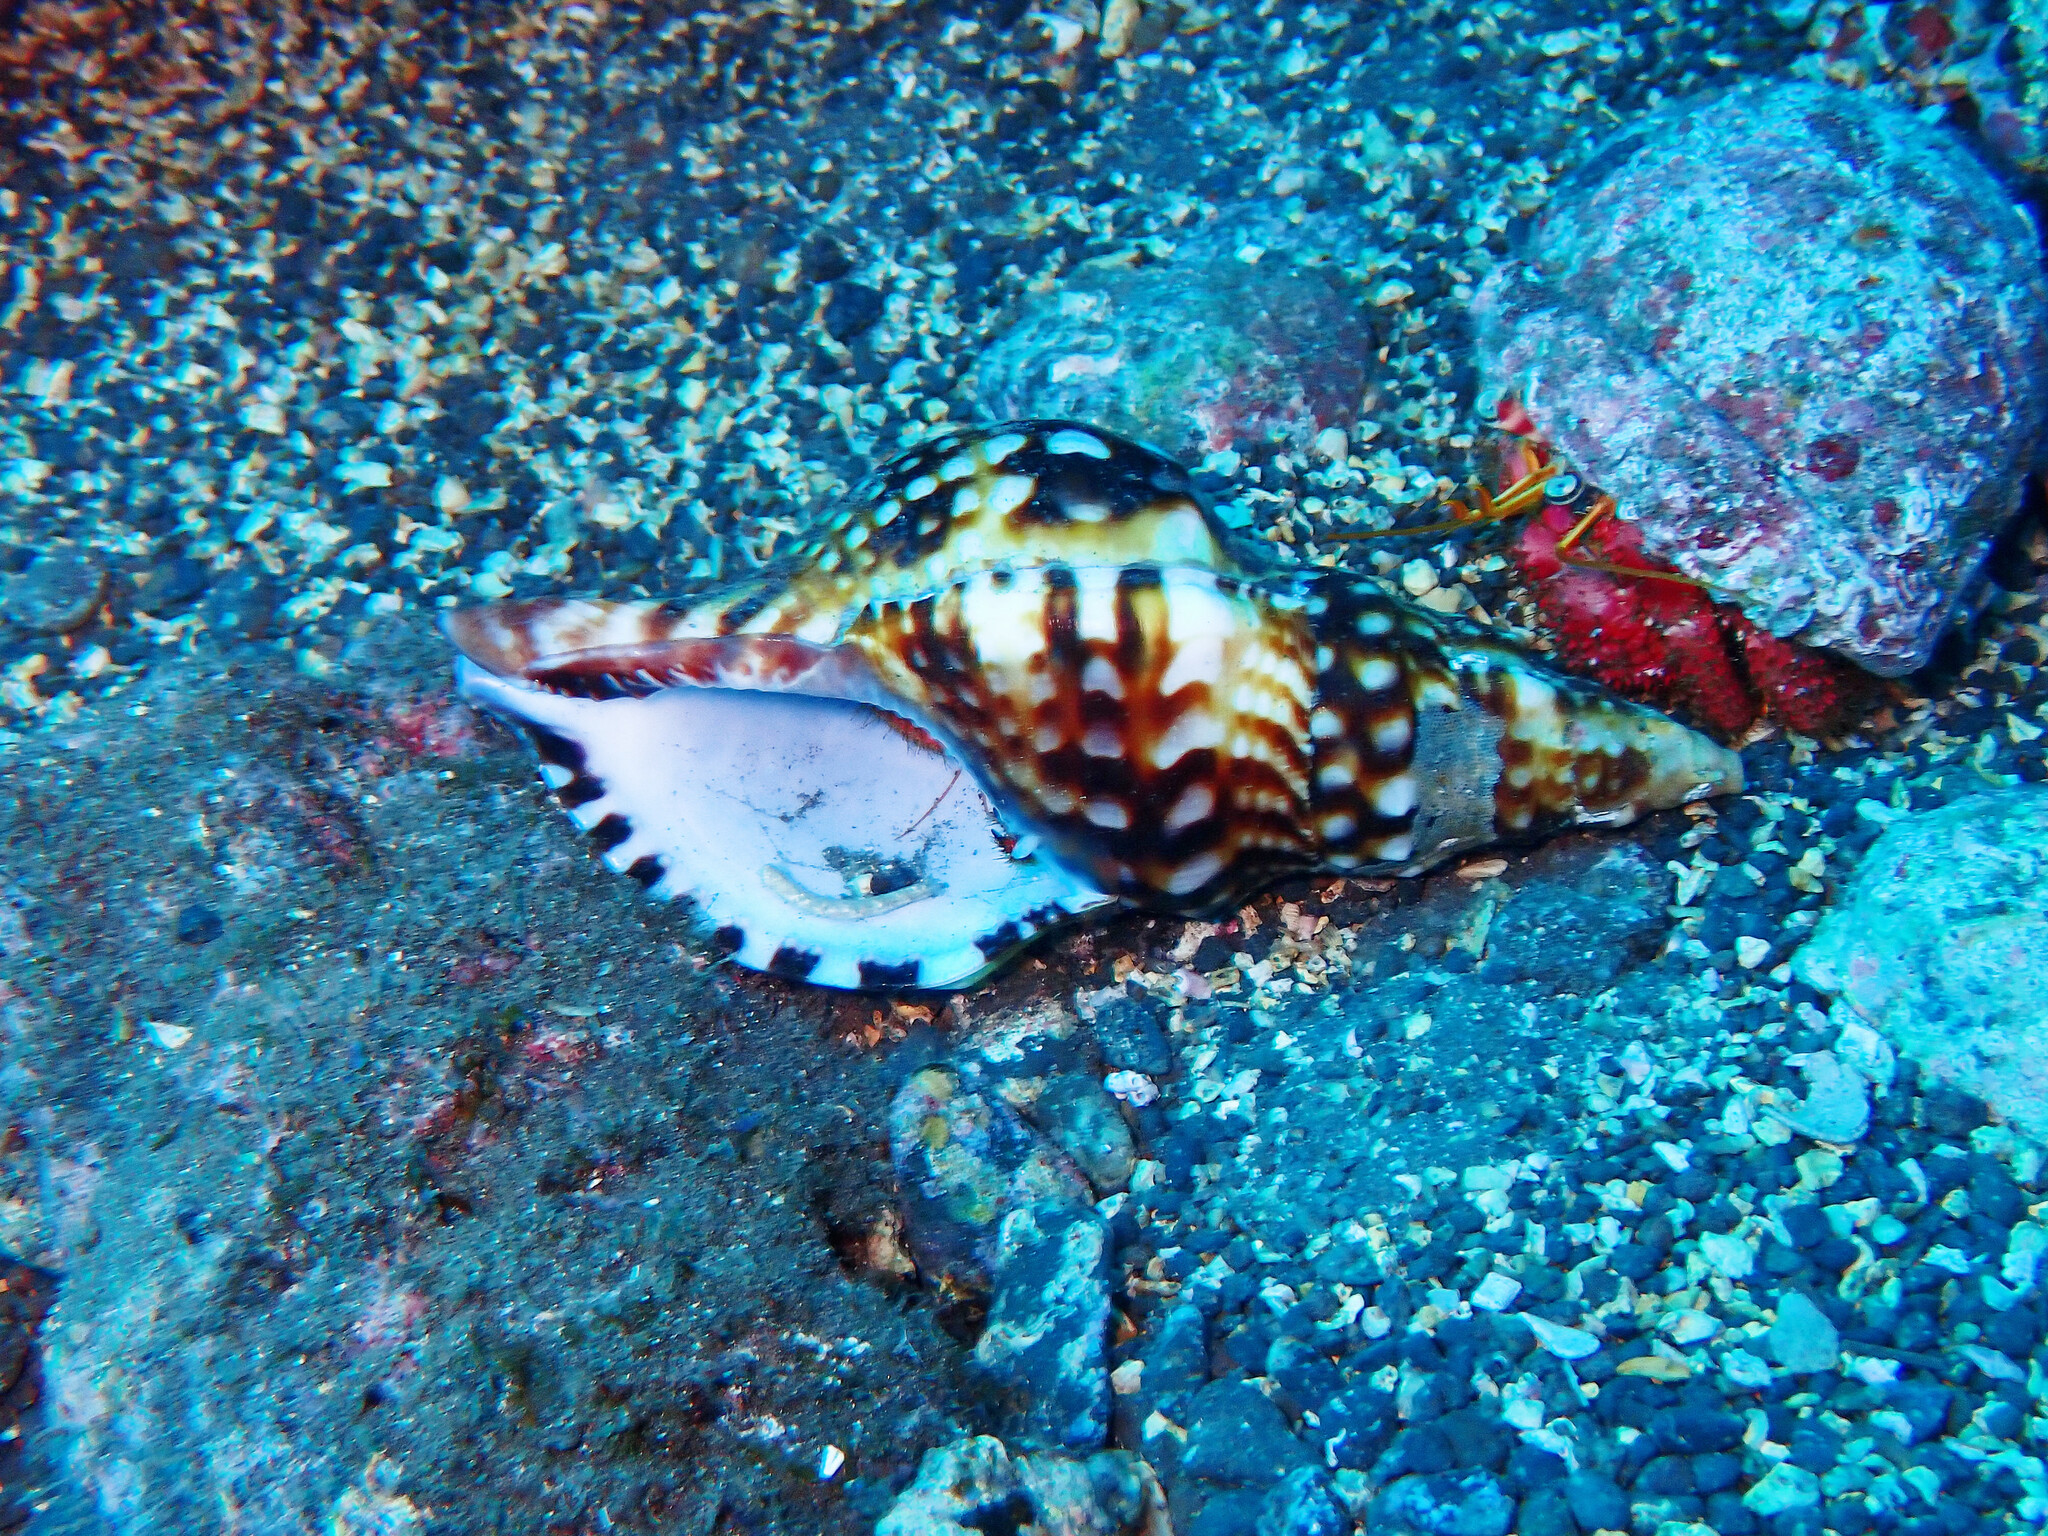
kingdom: Animalia
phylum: Mollusca
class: Gastropoda
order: Littorinimorpha
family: Charoniidae
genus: Charonia
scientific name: Charonia lampas
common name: Knobbed triton
